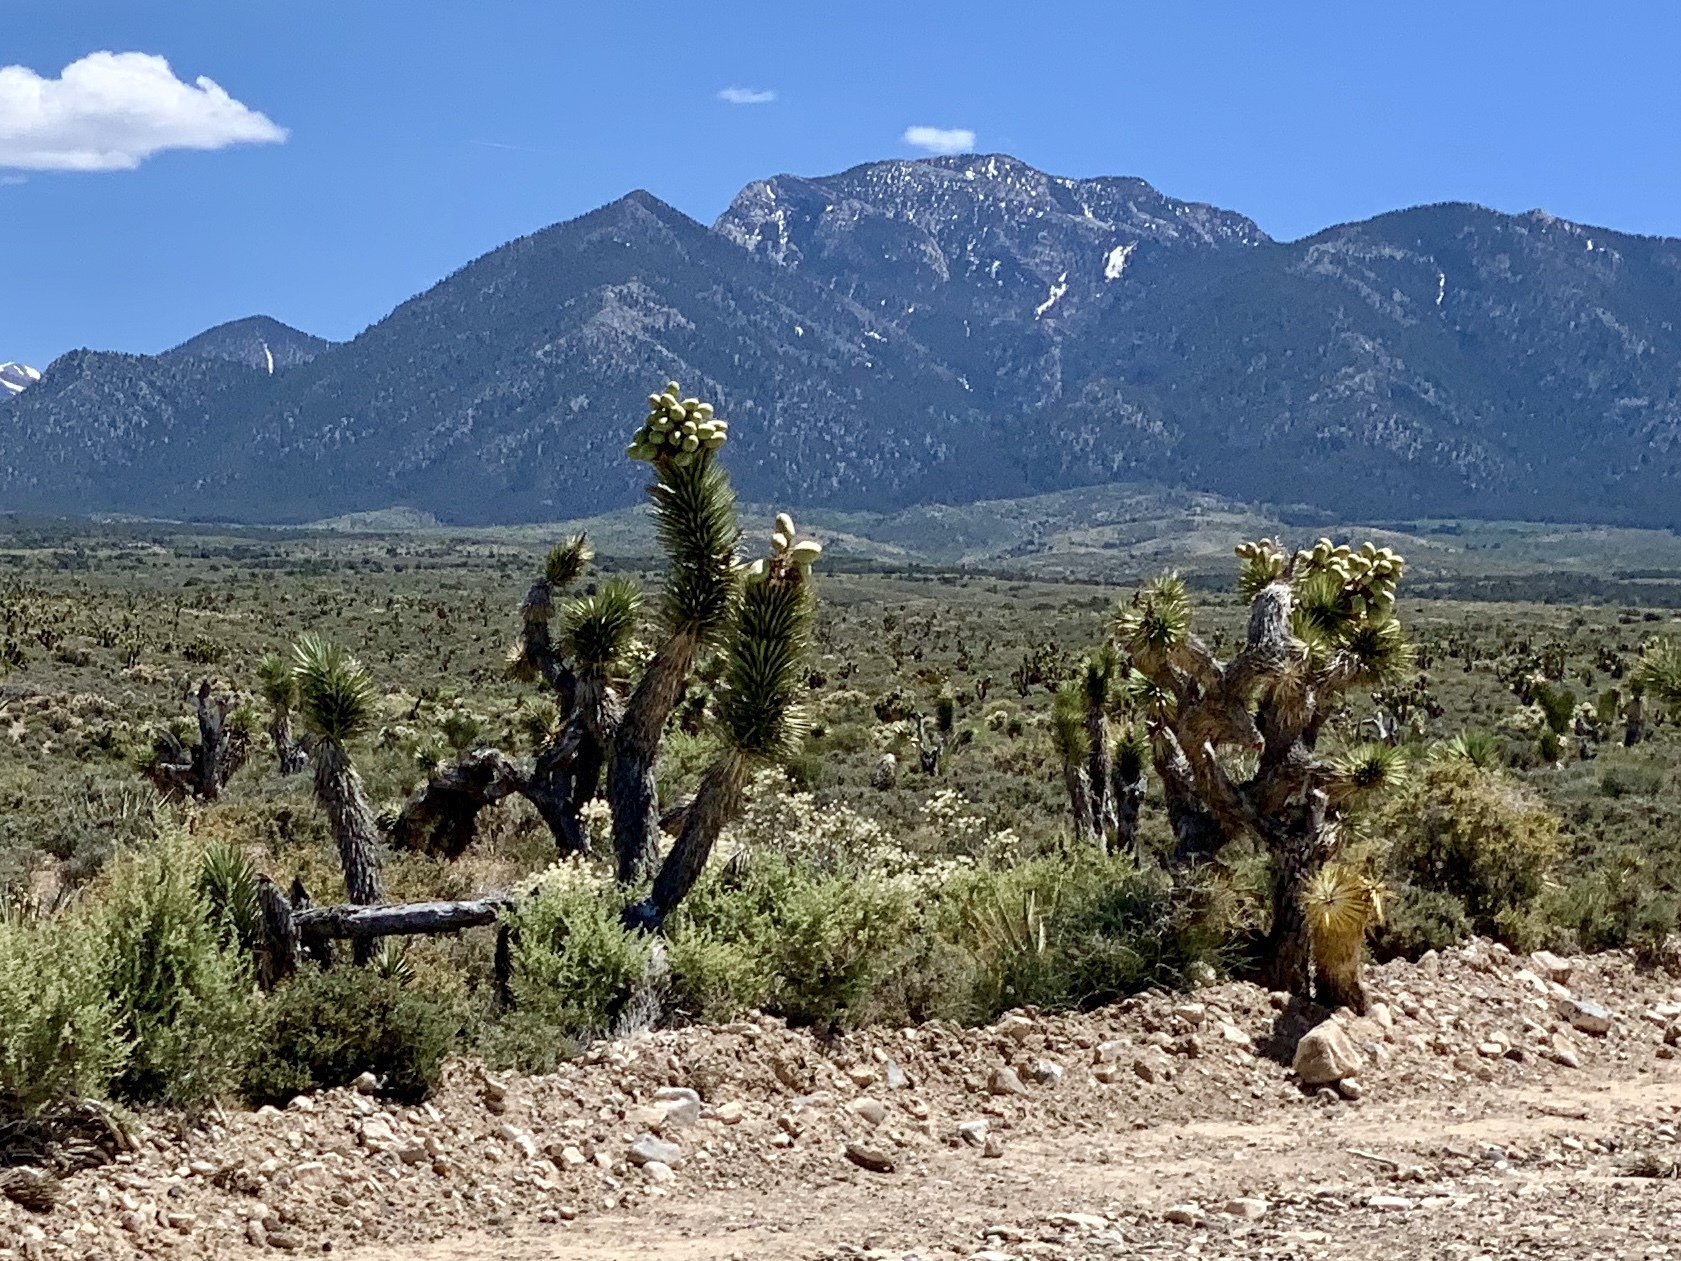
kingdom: Plantae
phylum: Tracheophyta
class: Liliopsida
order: Asparagales
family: Asparagaceae
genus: Yucca
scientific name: Yucca brevifolia
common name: Joshua tree
